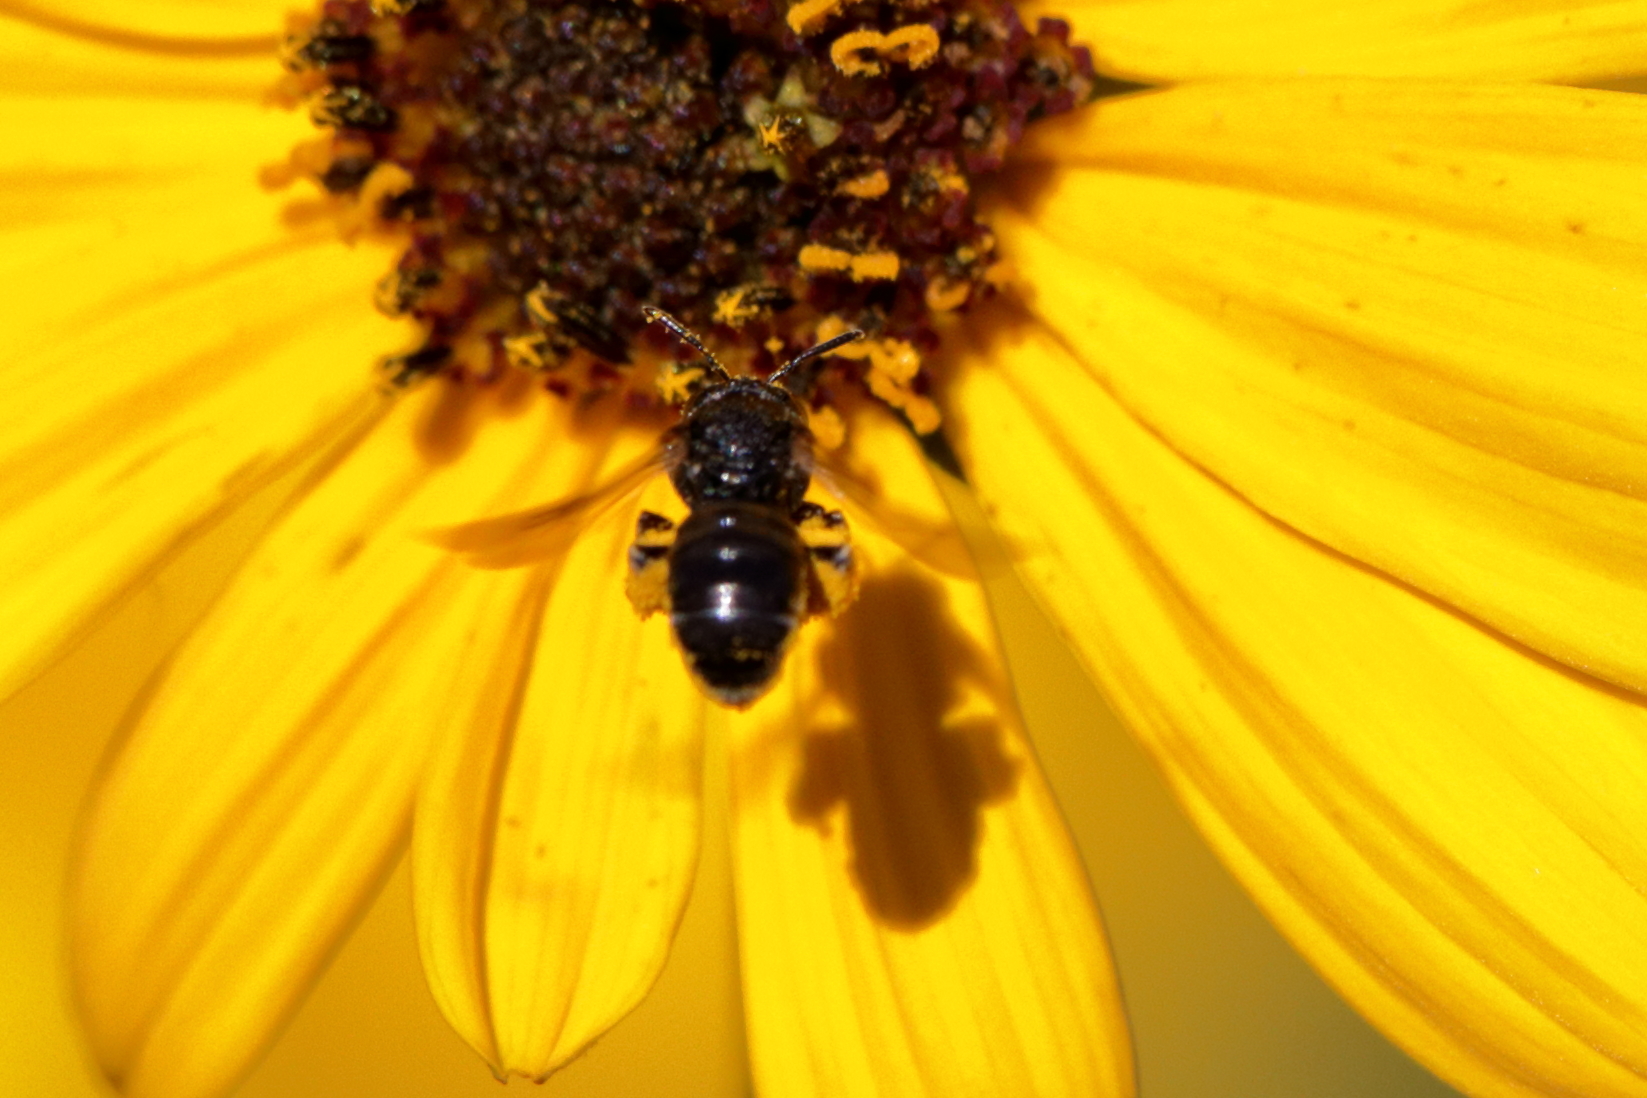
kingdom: Animalia
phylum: Arthropoda
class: Insecta
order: Hymenoptera
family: Andrenidae
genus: Protandrena
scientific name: Protandrena rugosa
